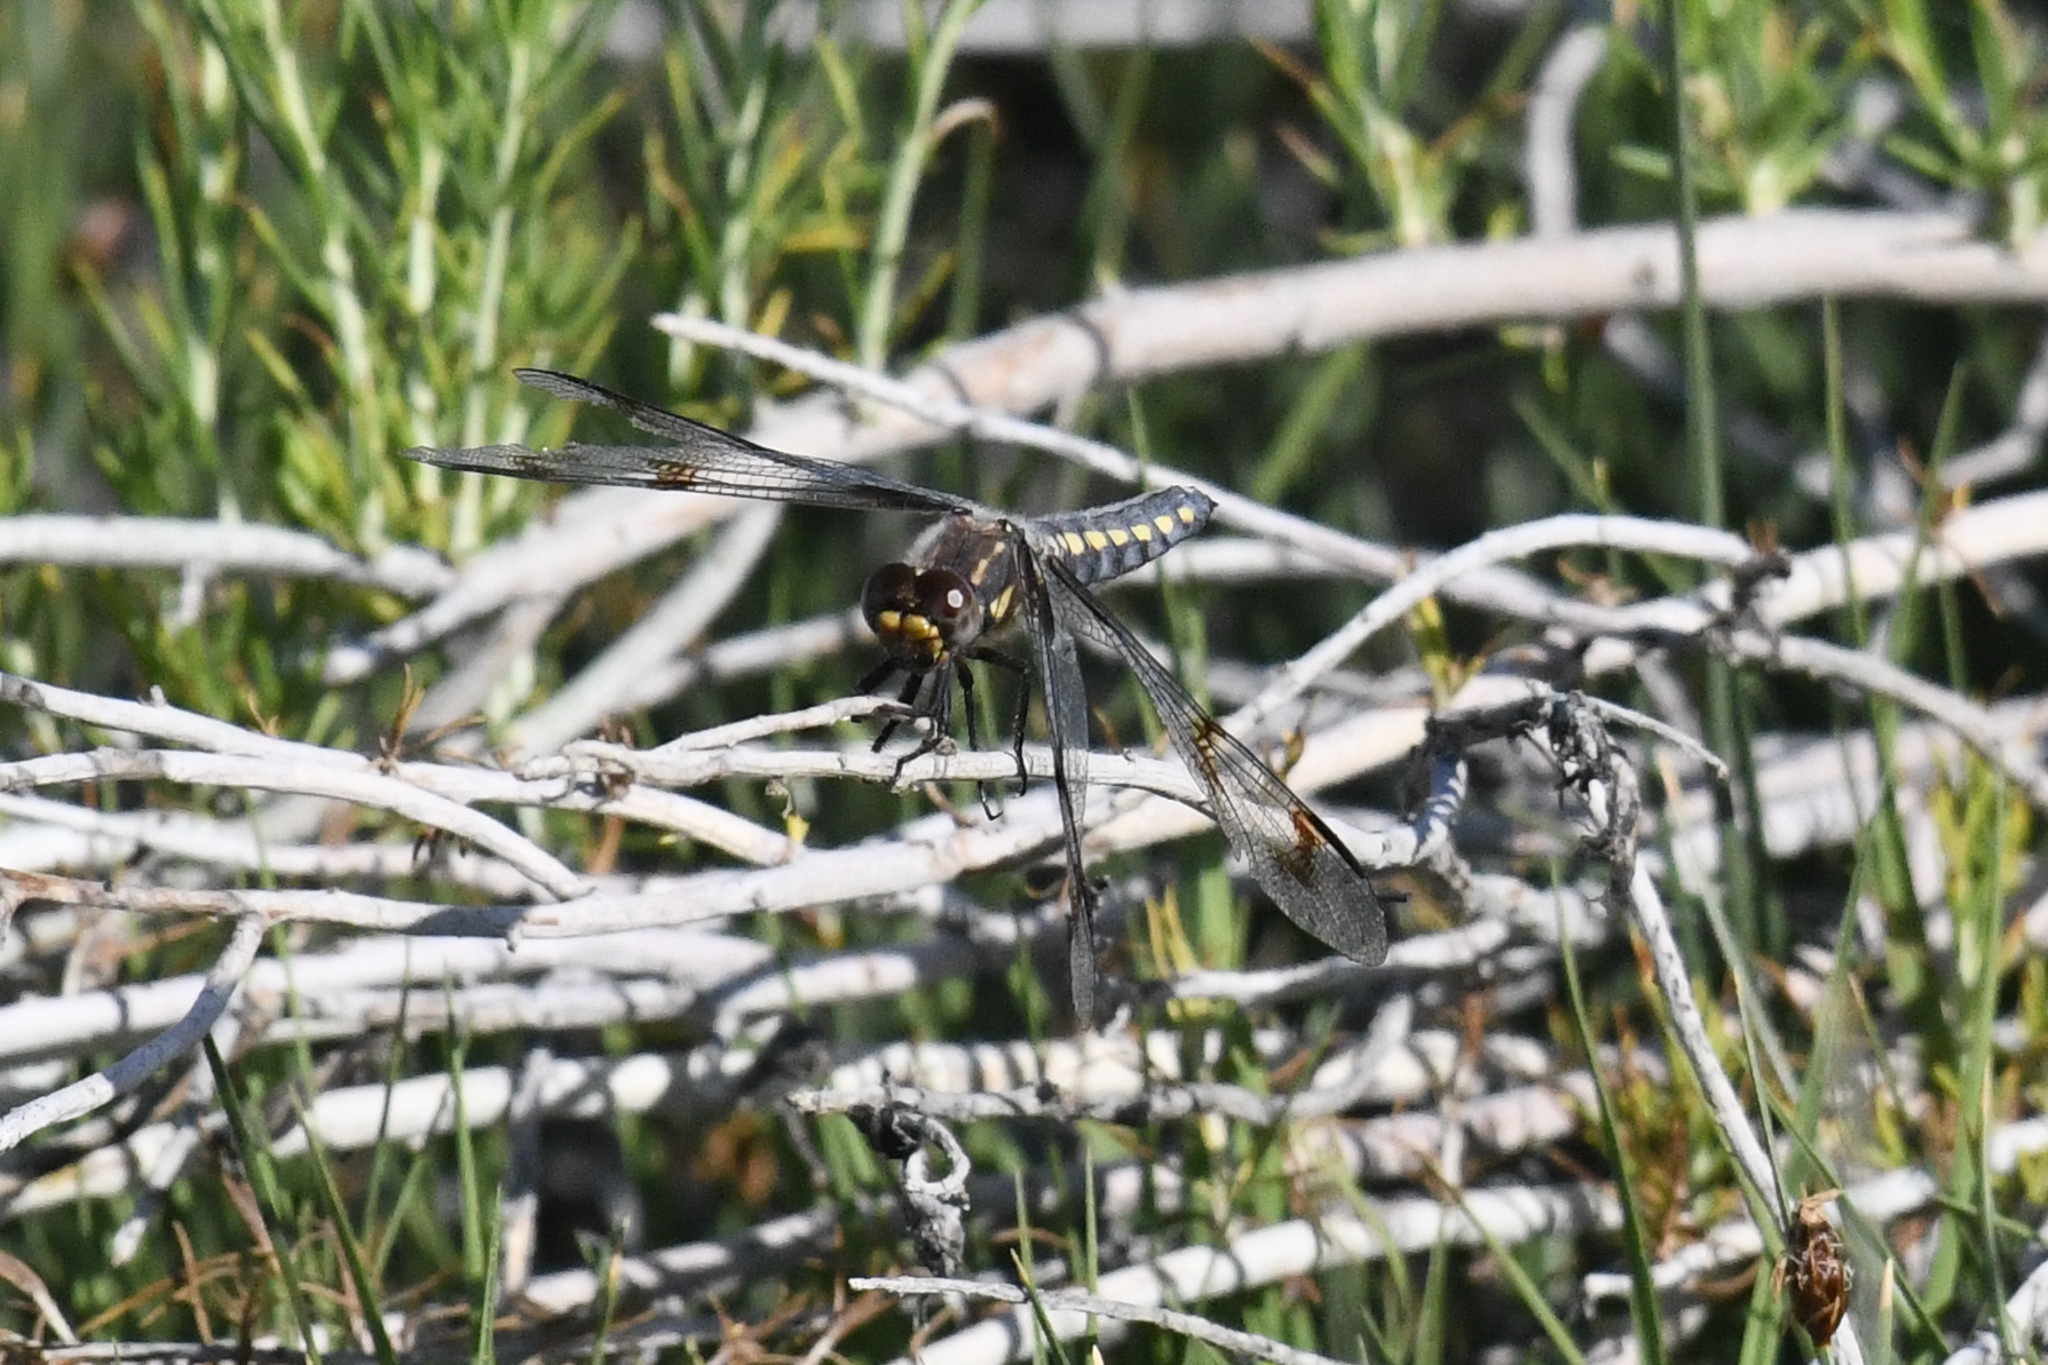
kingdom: Animalia
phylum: Arthropoda
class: Insecta
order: Odonata
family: Libellulidae
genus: Plathemis
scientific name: Plathemis subornata
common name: Desert whitetail
